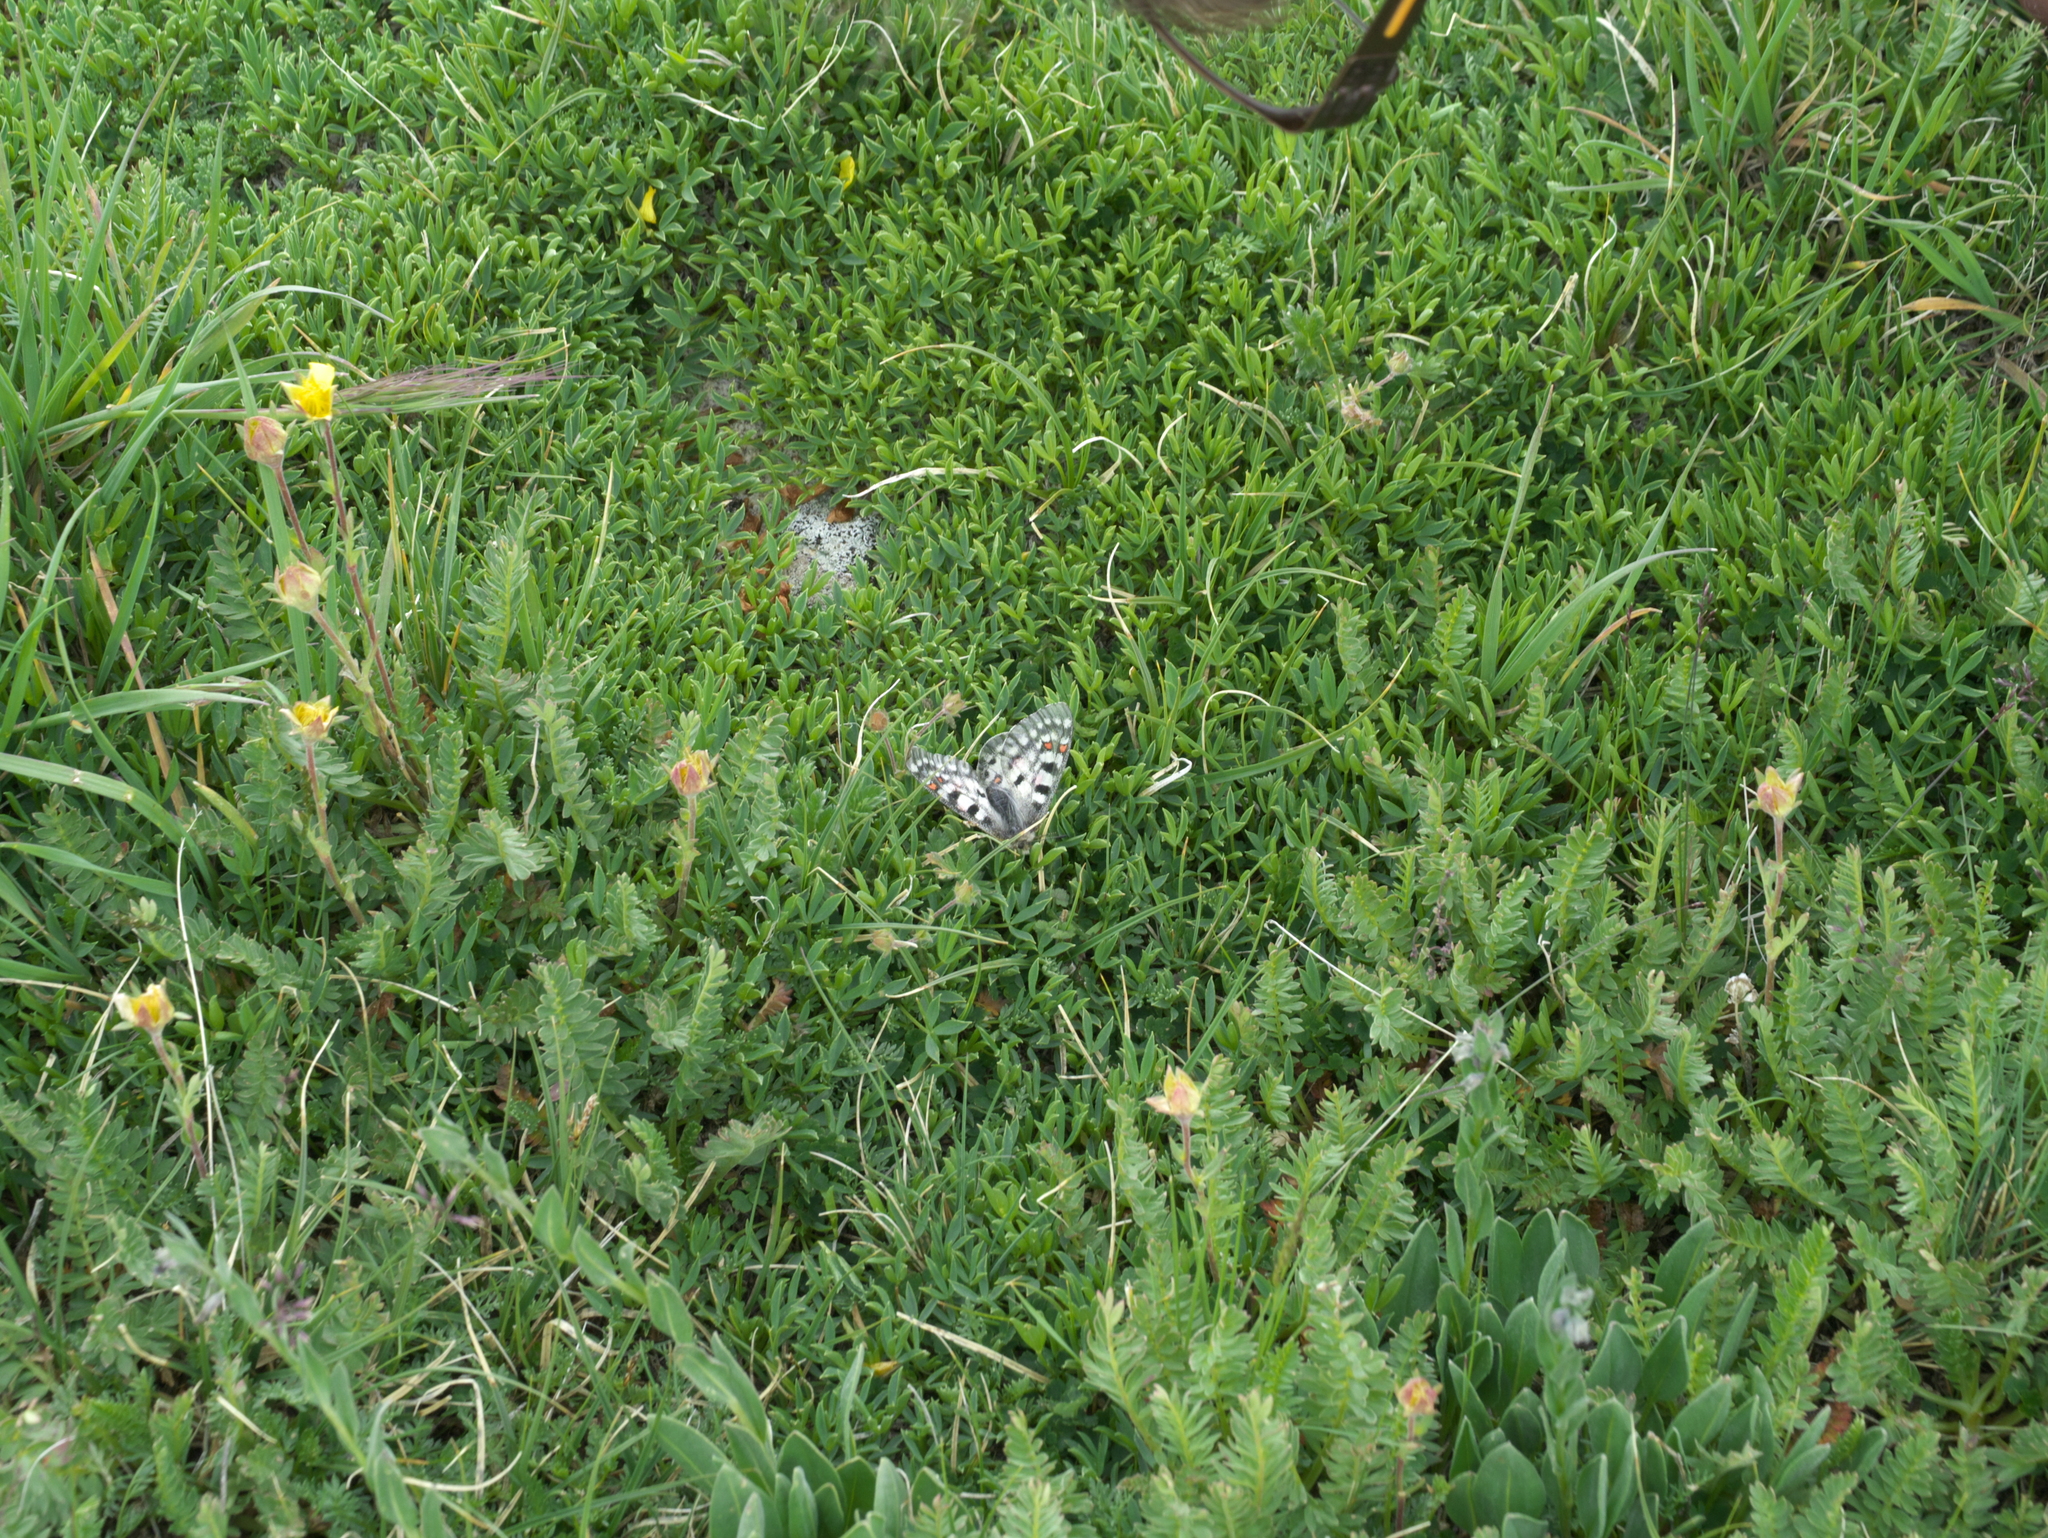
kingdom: Animalia
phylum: Arthropoda
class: Insecta
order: Lepidoptera
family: Papilionidae
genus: Parnassius
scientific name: Parnassius smintheus
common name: Mountain parnassian
